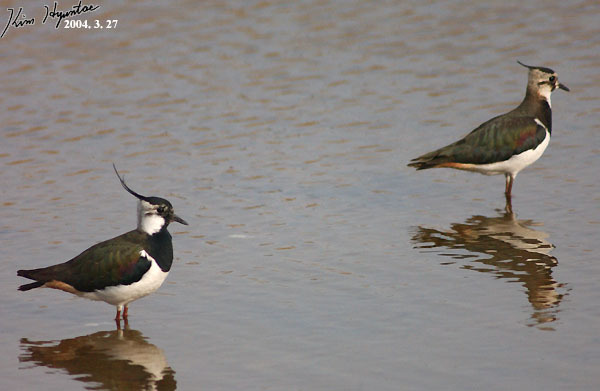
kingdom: Animalia
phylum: Chordata
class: Aves
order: Charadriiformes
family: Charadriidae
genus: Vanellus
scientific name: Vanellus vanellus
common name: Northern lapwing
